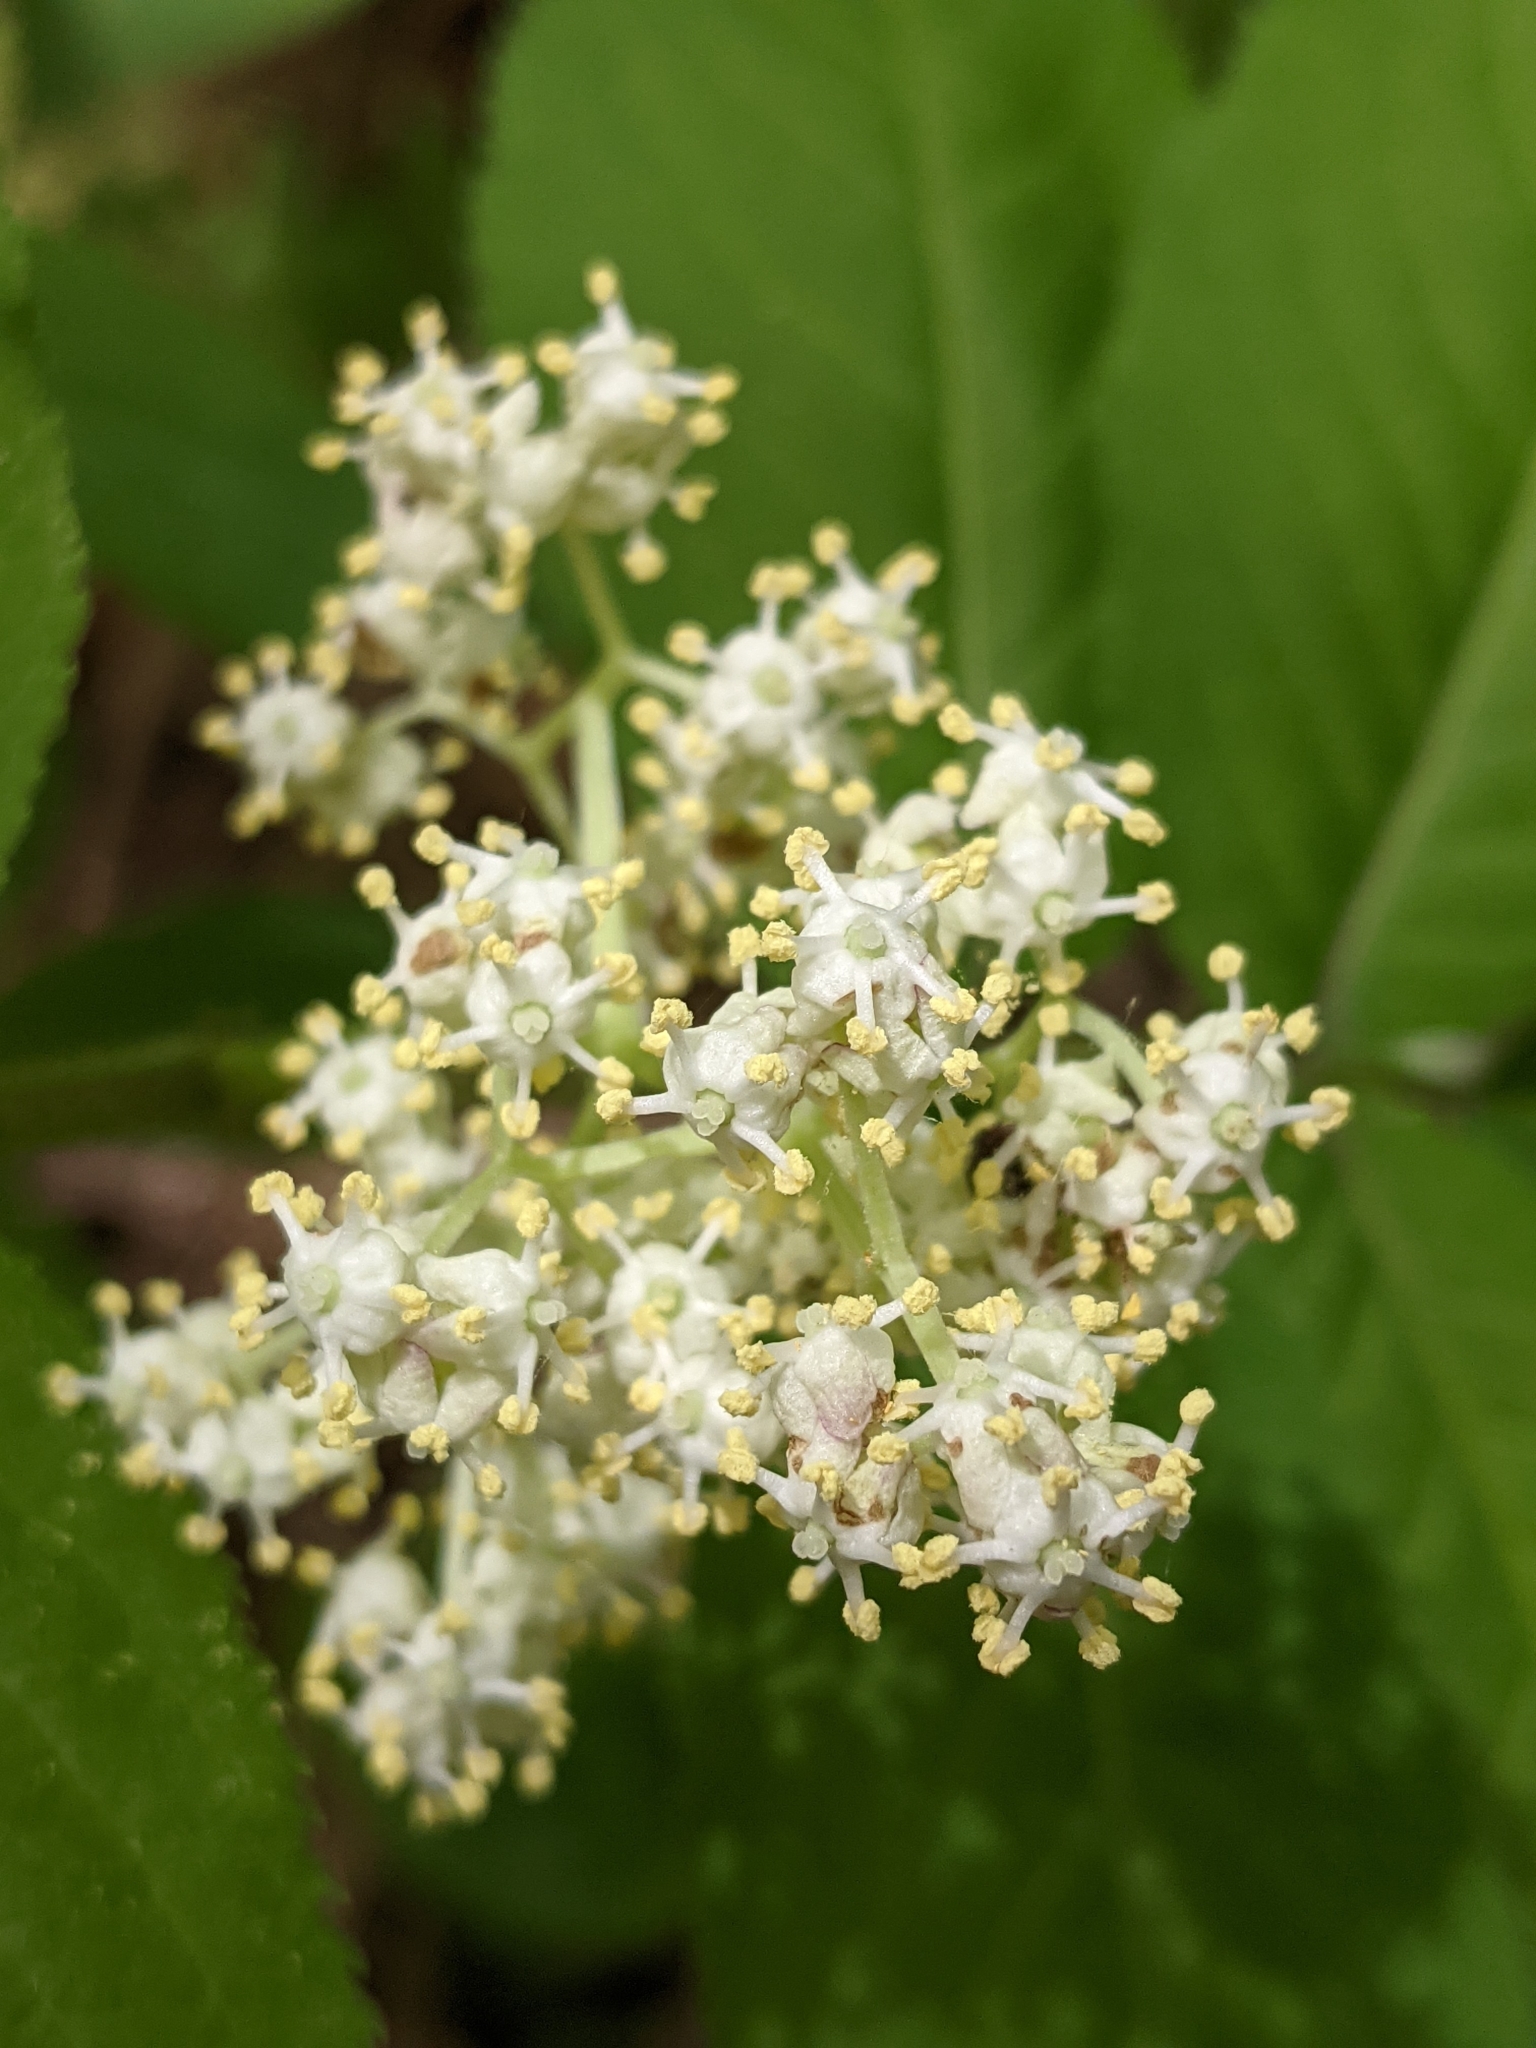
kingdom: Plantae
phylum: Tracheophyta
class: Magnoliopsida
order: Dipsacales
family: Viburnaceae
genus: Sambucus
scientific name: Sambucus racemosa
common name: Red-berried elder
